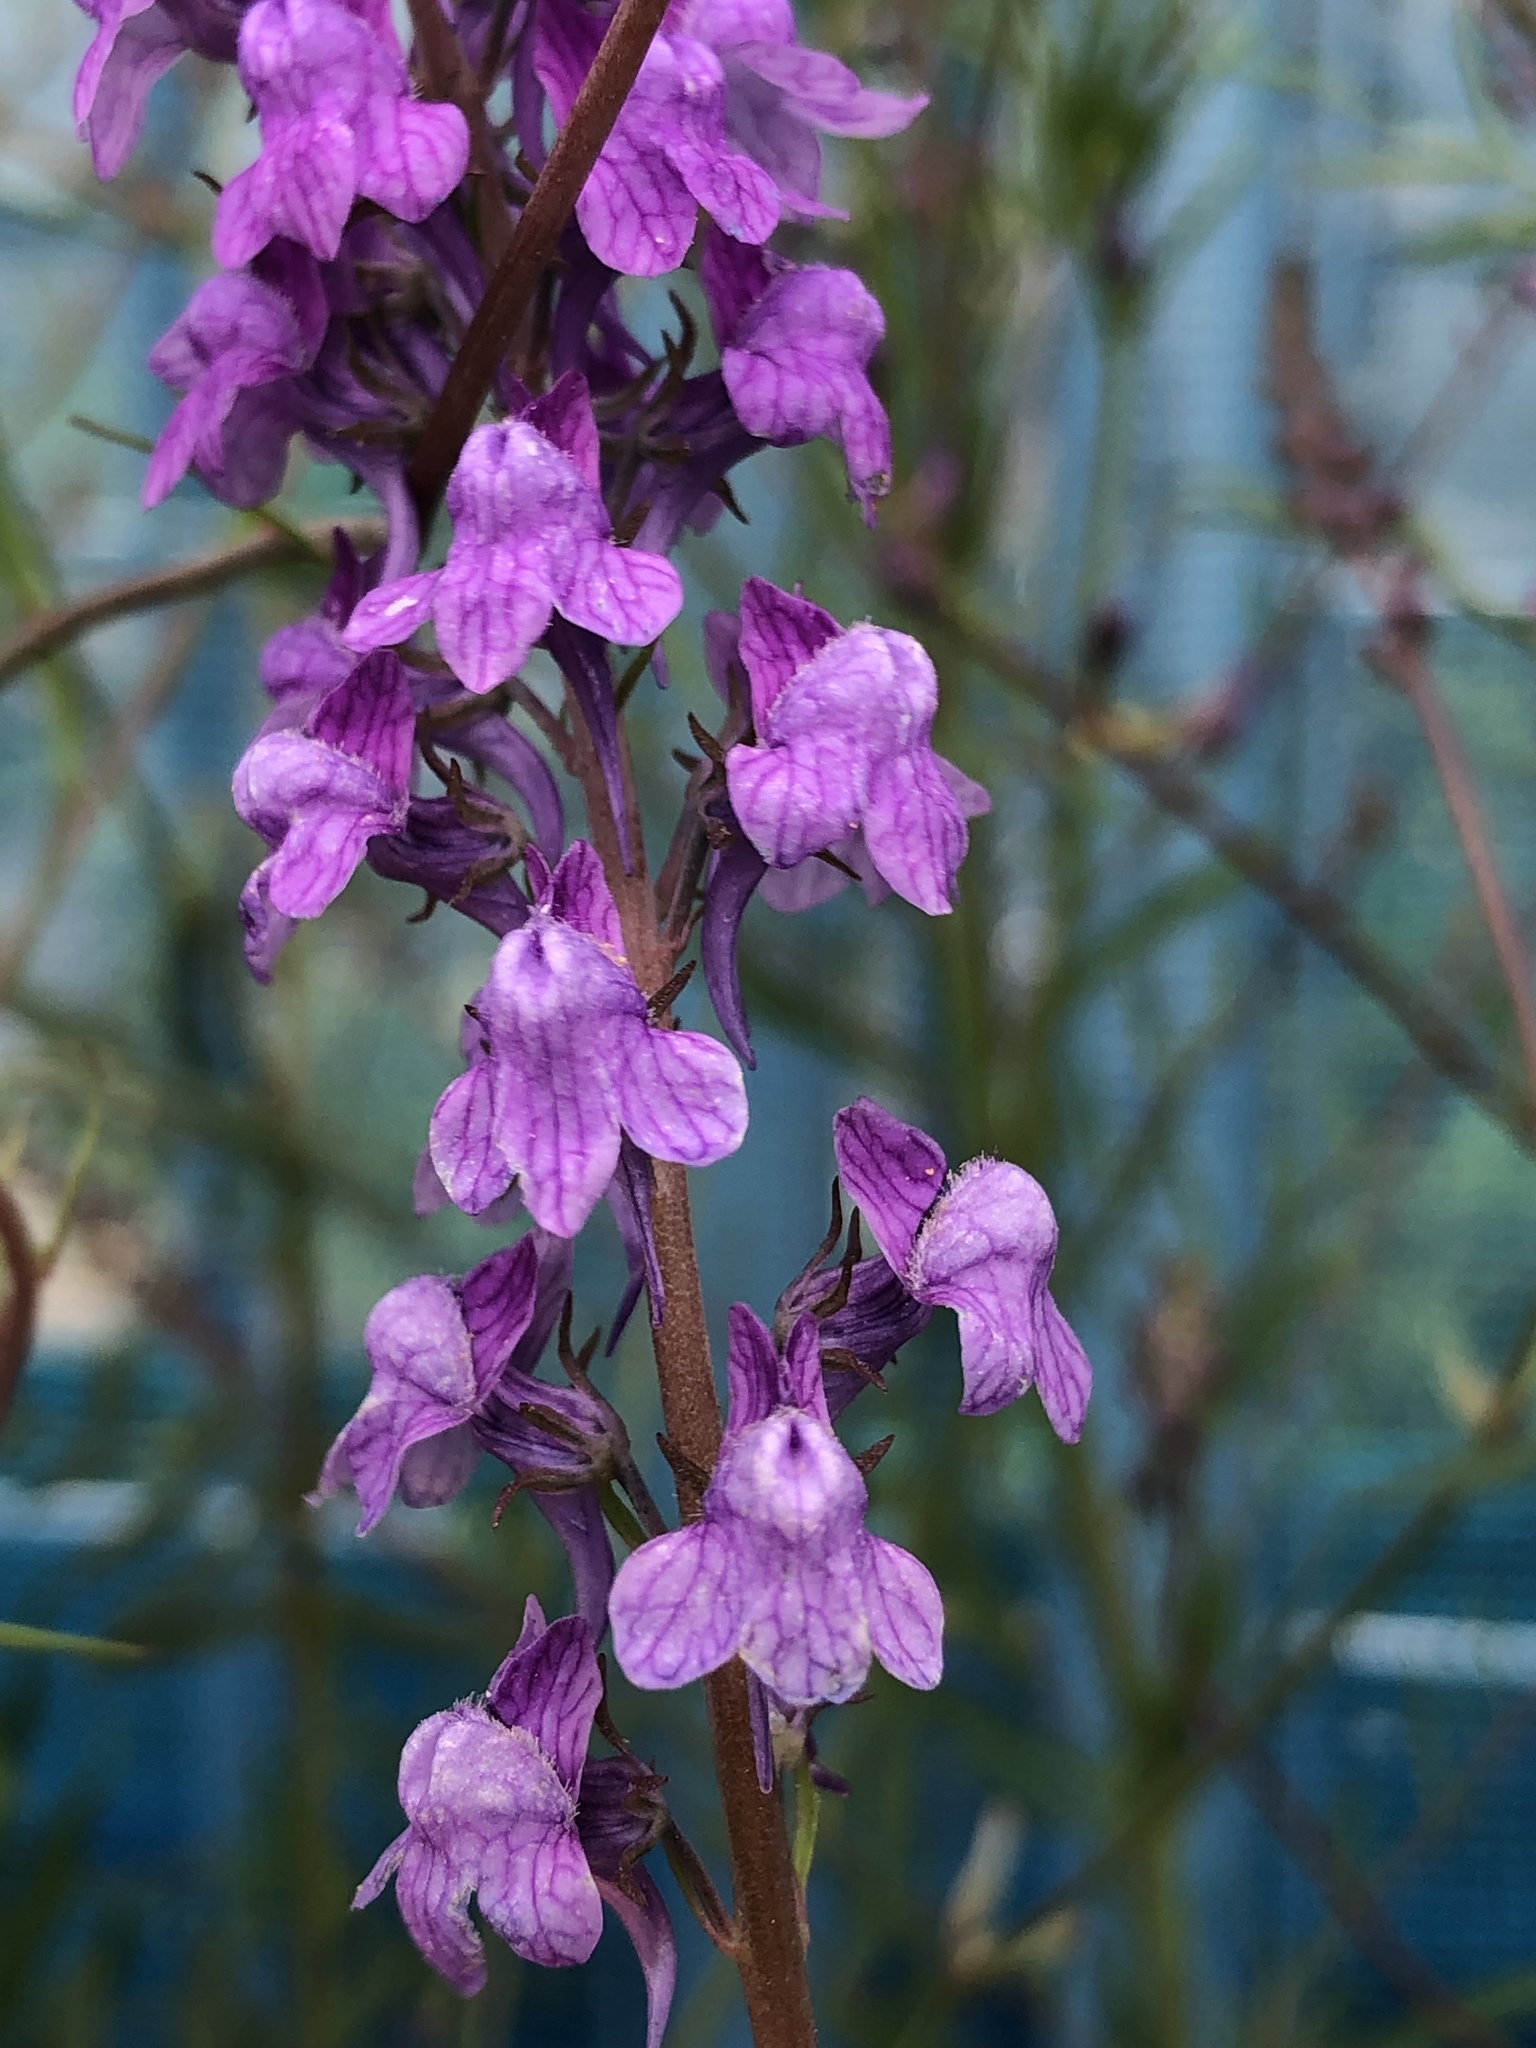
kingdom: Plantae
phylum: Tracheophyta
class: Magnoliopsida
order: Lamiales
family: Plantaginaceae
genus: Linaria
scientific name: Linaria purpurea
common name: Purple toadflax
